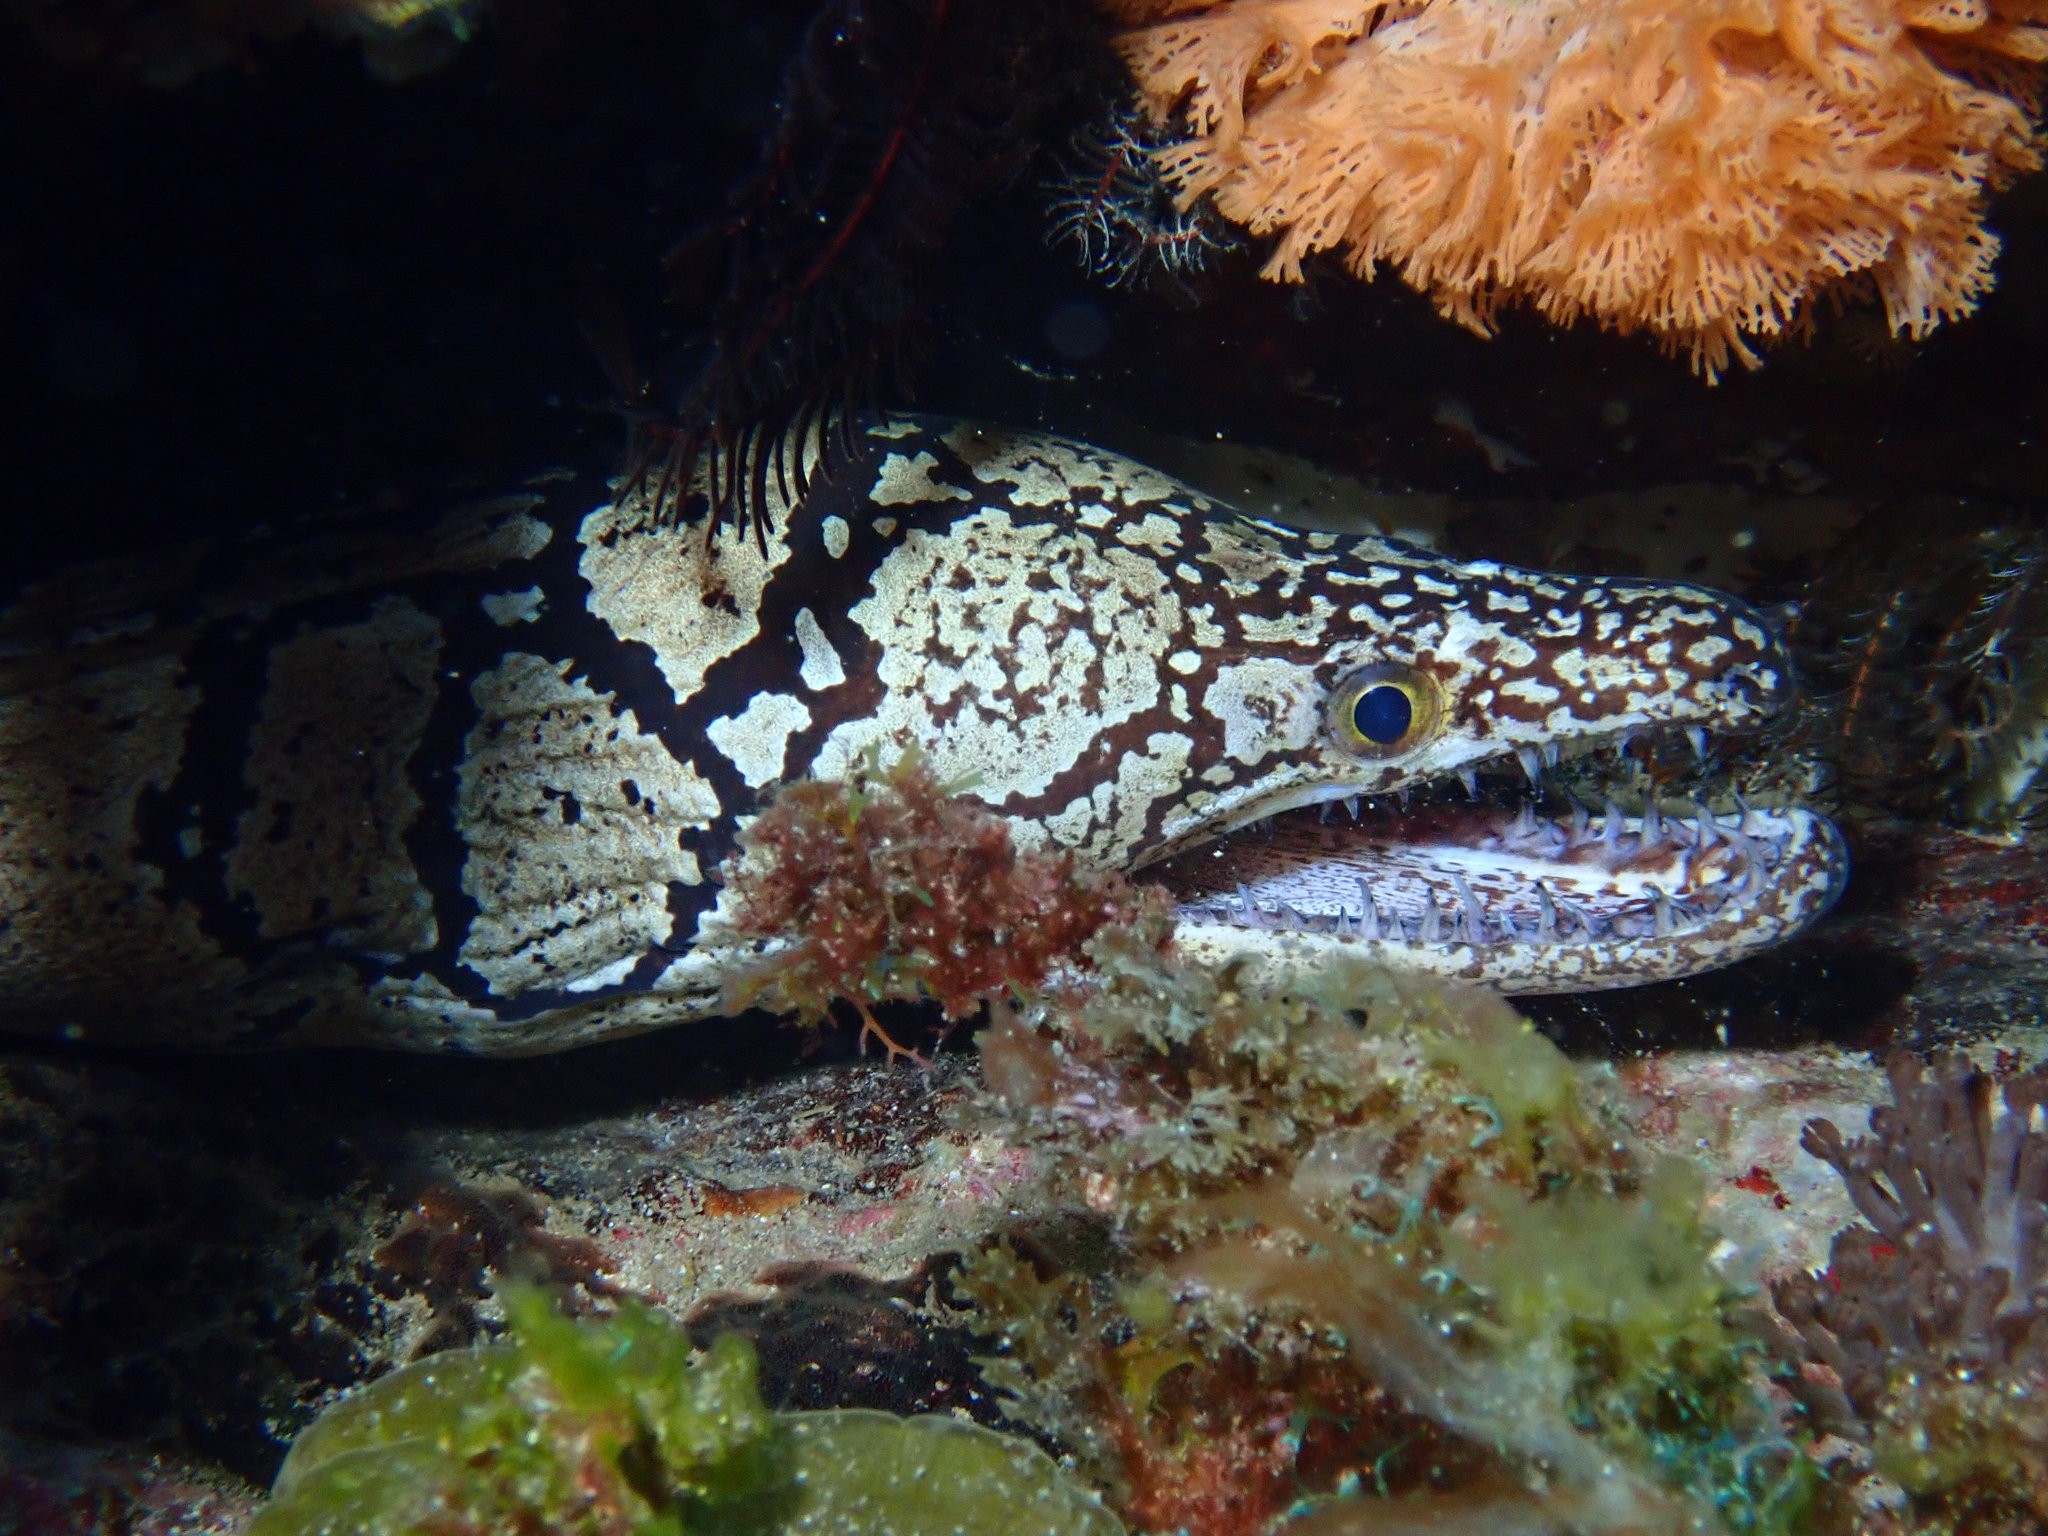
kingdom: Animalia
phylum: Chordata
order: Anguilliformes
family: Muraenidae
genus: Enchelycore
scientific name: Enchelycore ramosa
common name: Mosaic moray
